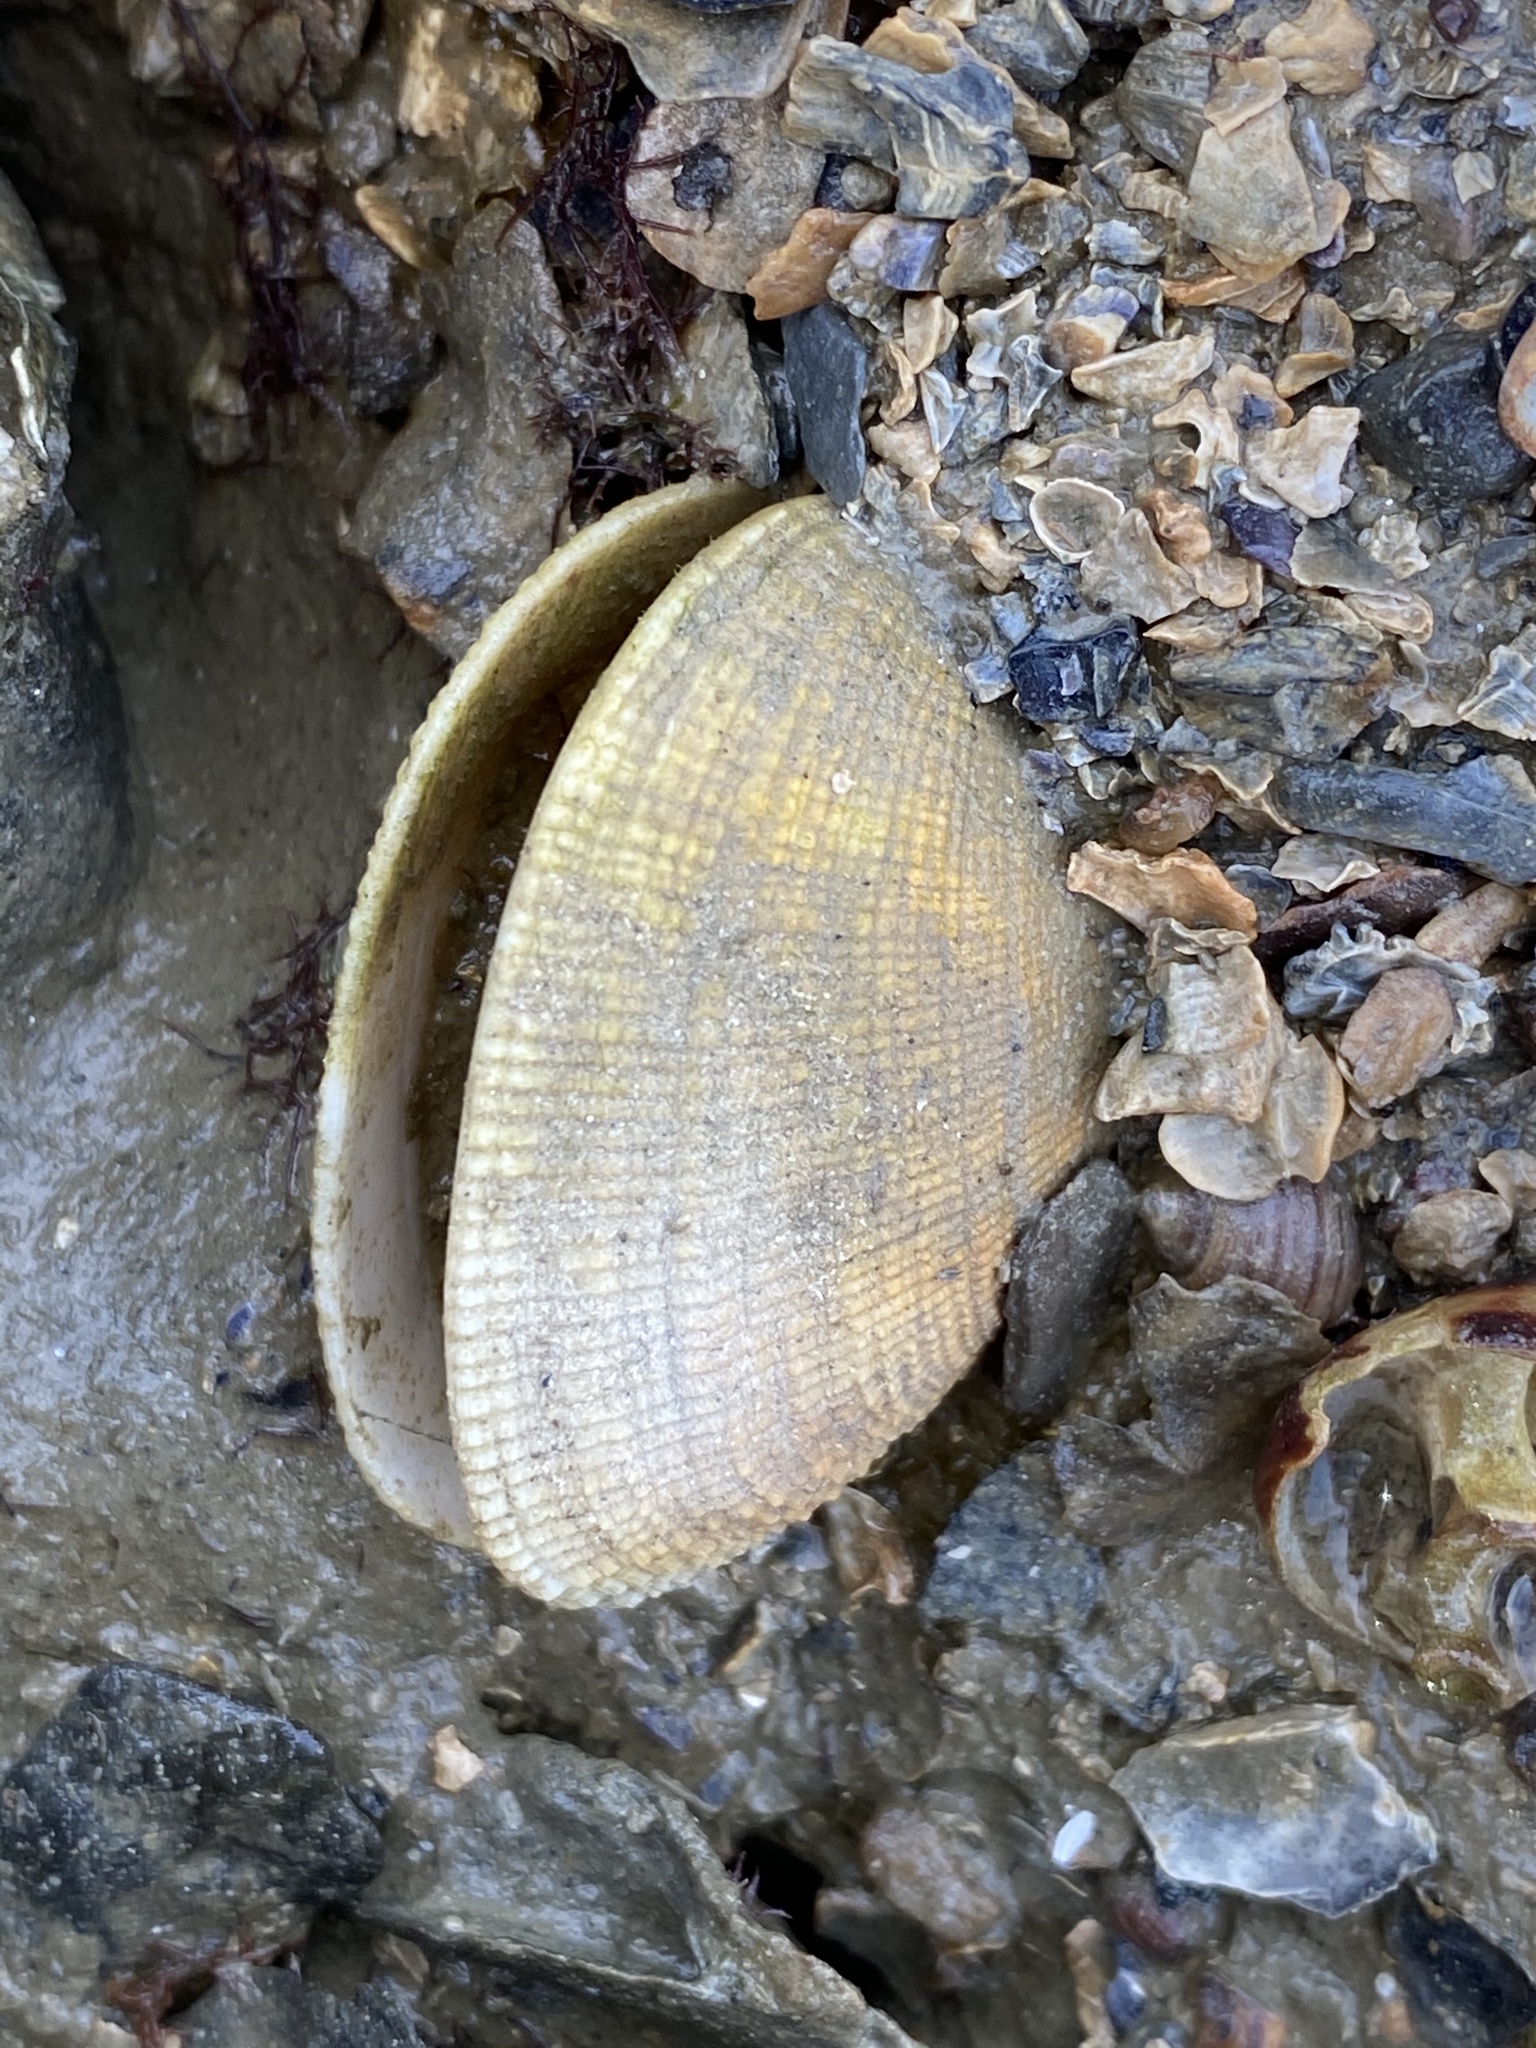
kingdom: Animalia
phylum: Mollusca
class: Bivalvia
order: Venerida
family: Veneridae
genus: Ruditapes
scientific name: Ruditapes philippinarum
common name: Manila clam
